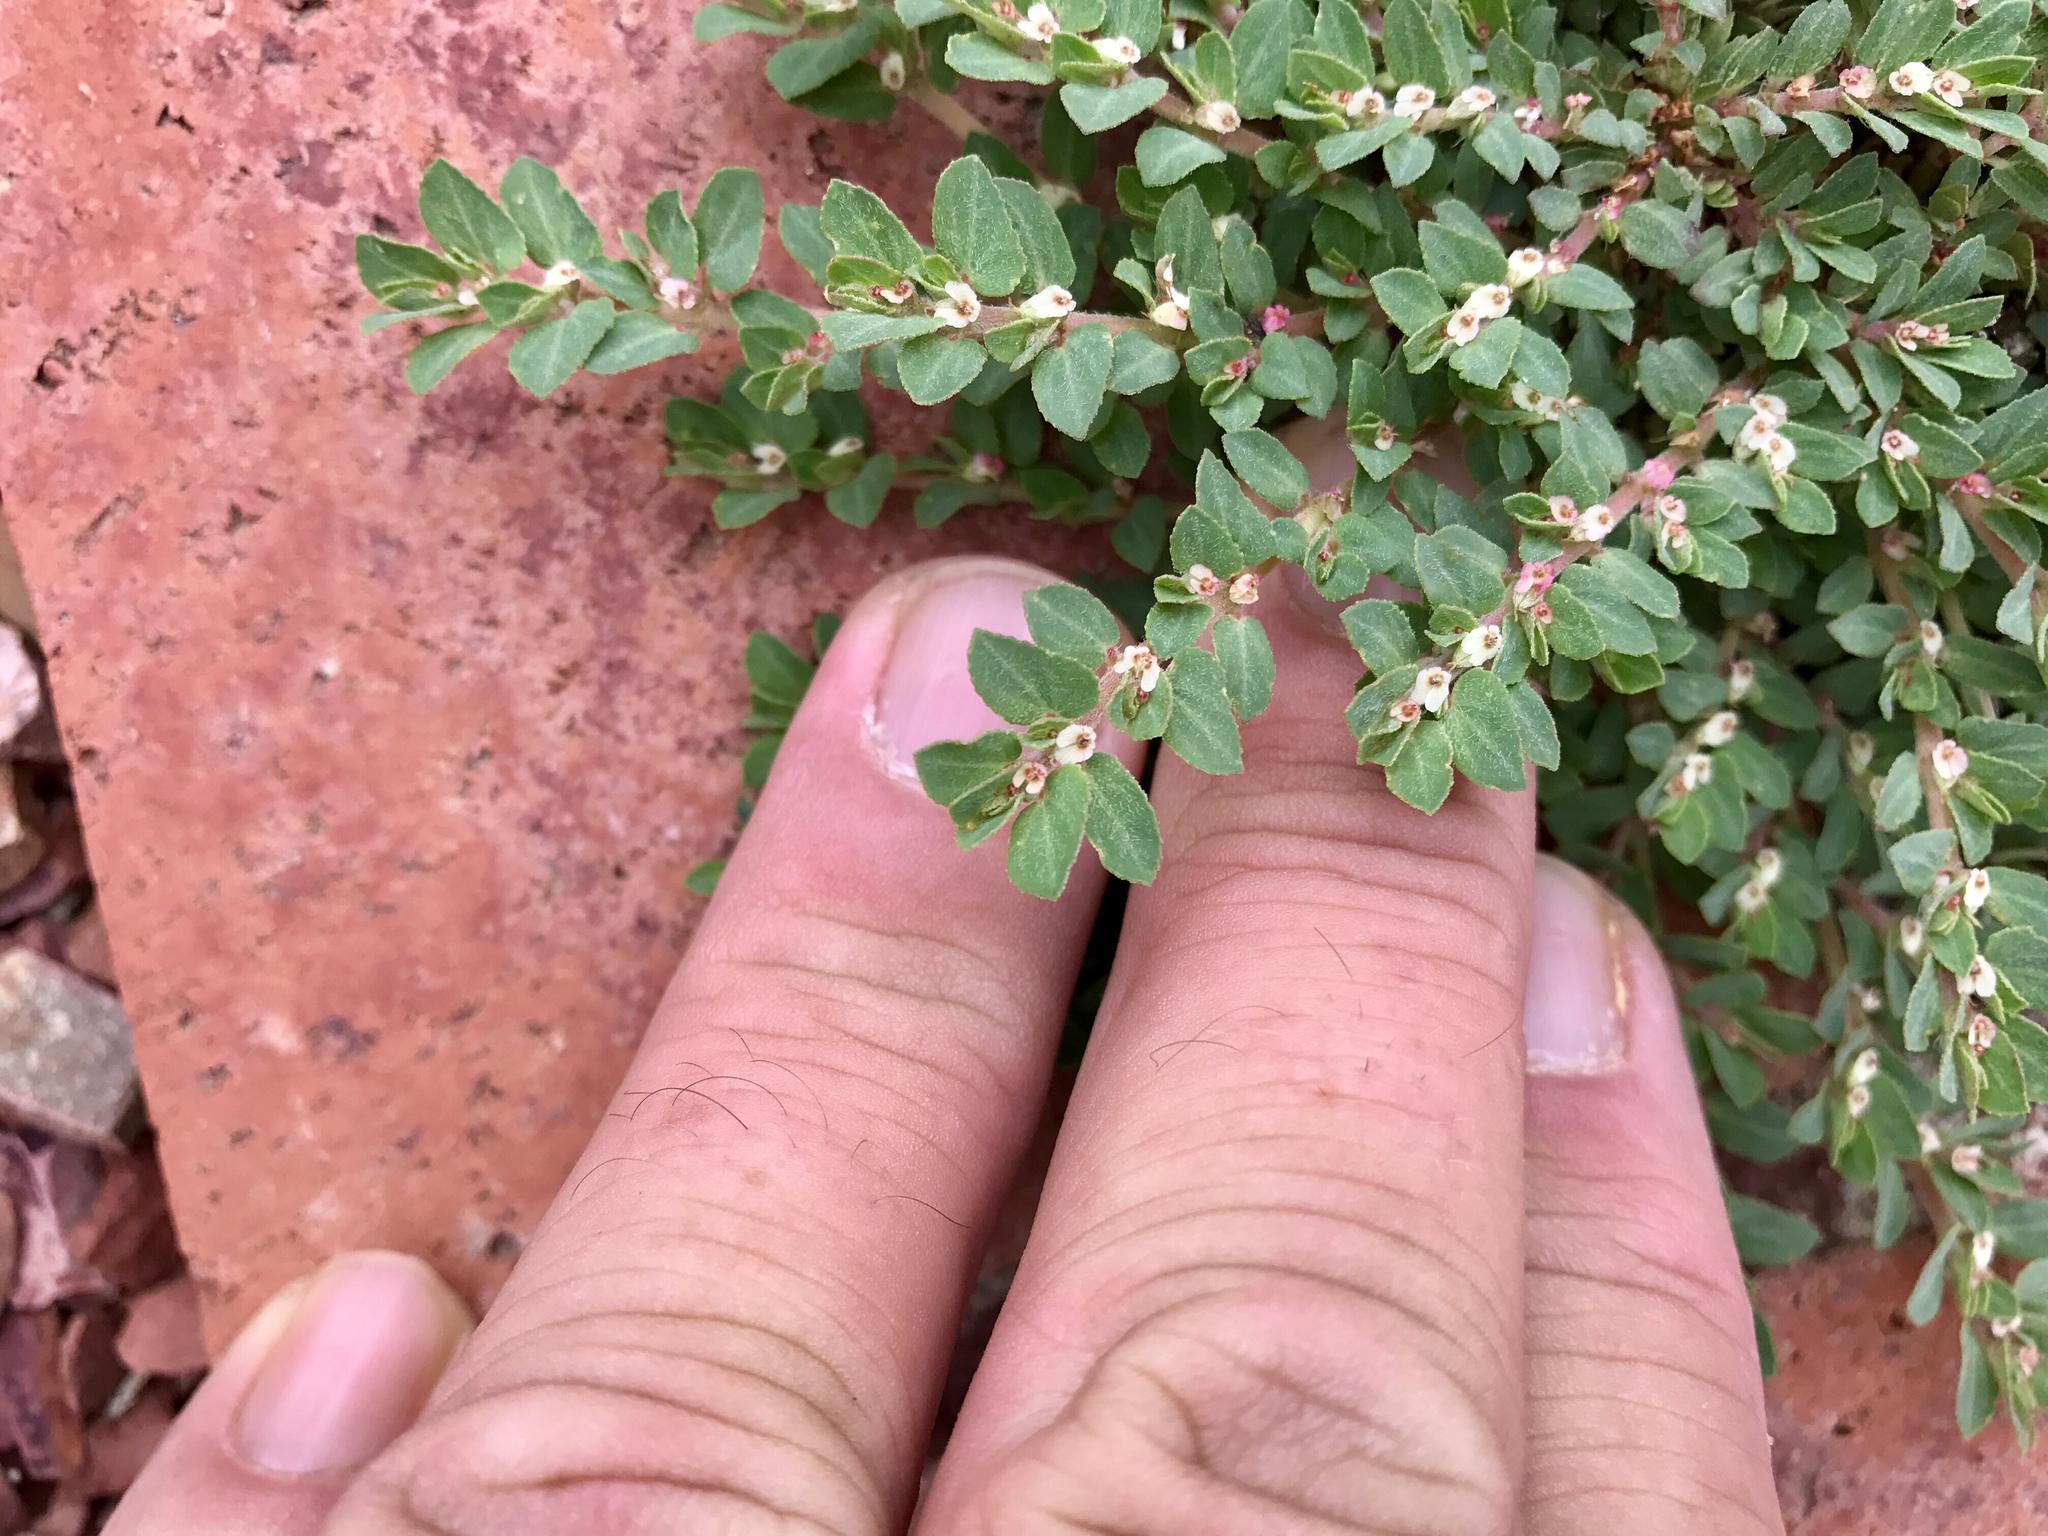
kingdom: Plantae
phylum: Tracheophyta
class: Magnoliopsida
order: Malpighiales
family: Euphorbiaceae
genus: Euphorbia
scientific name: Euphorbia indivisa
